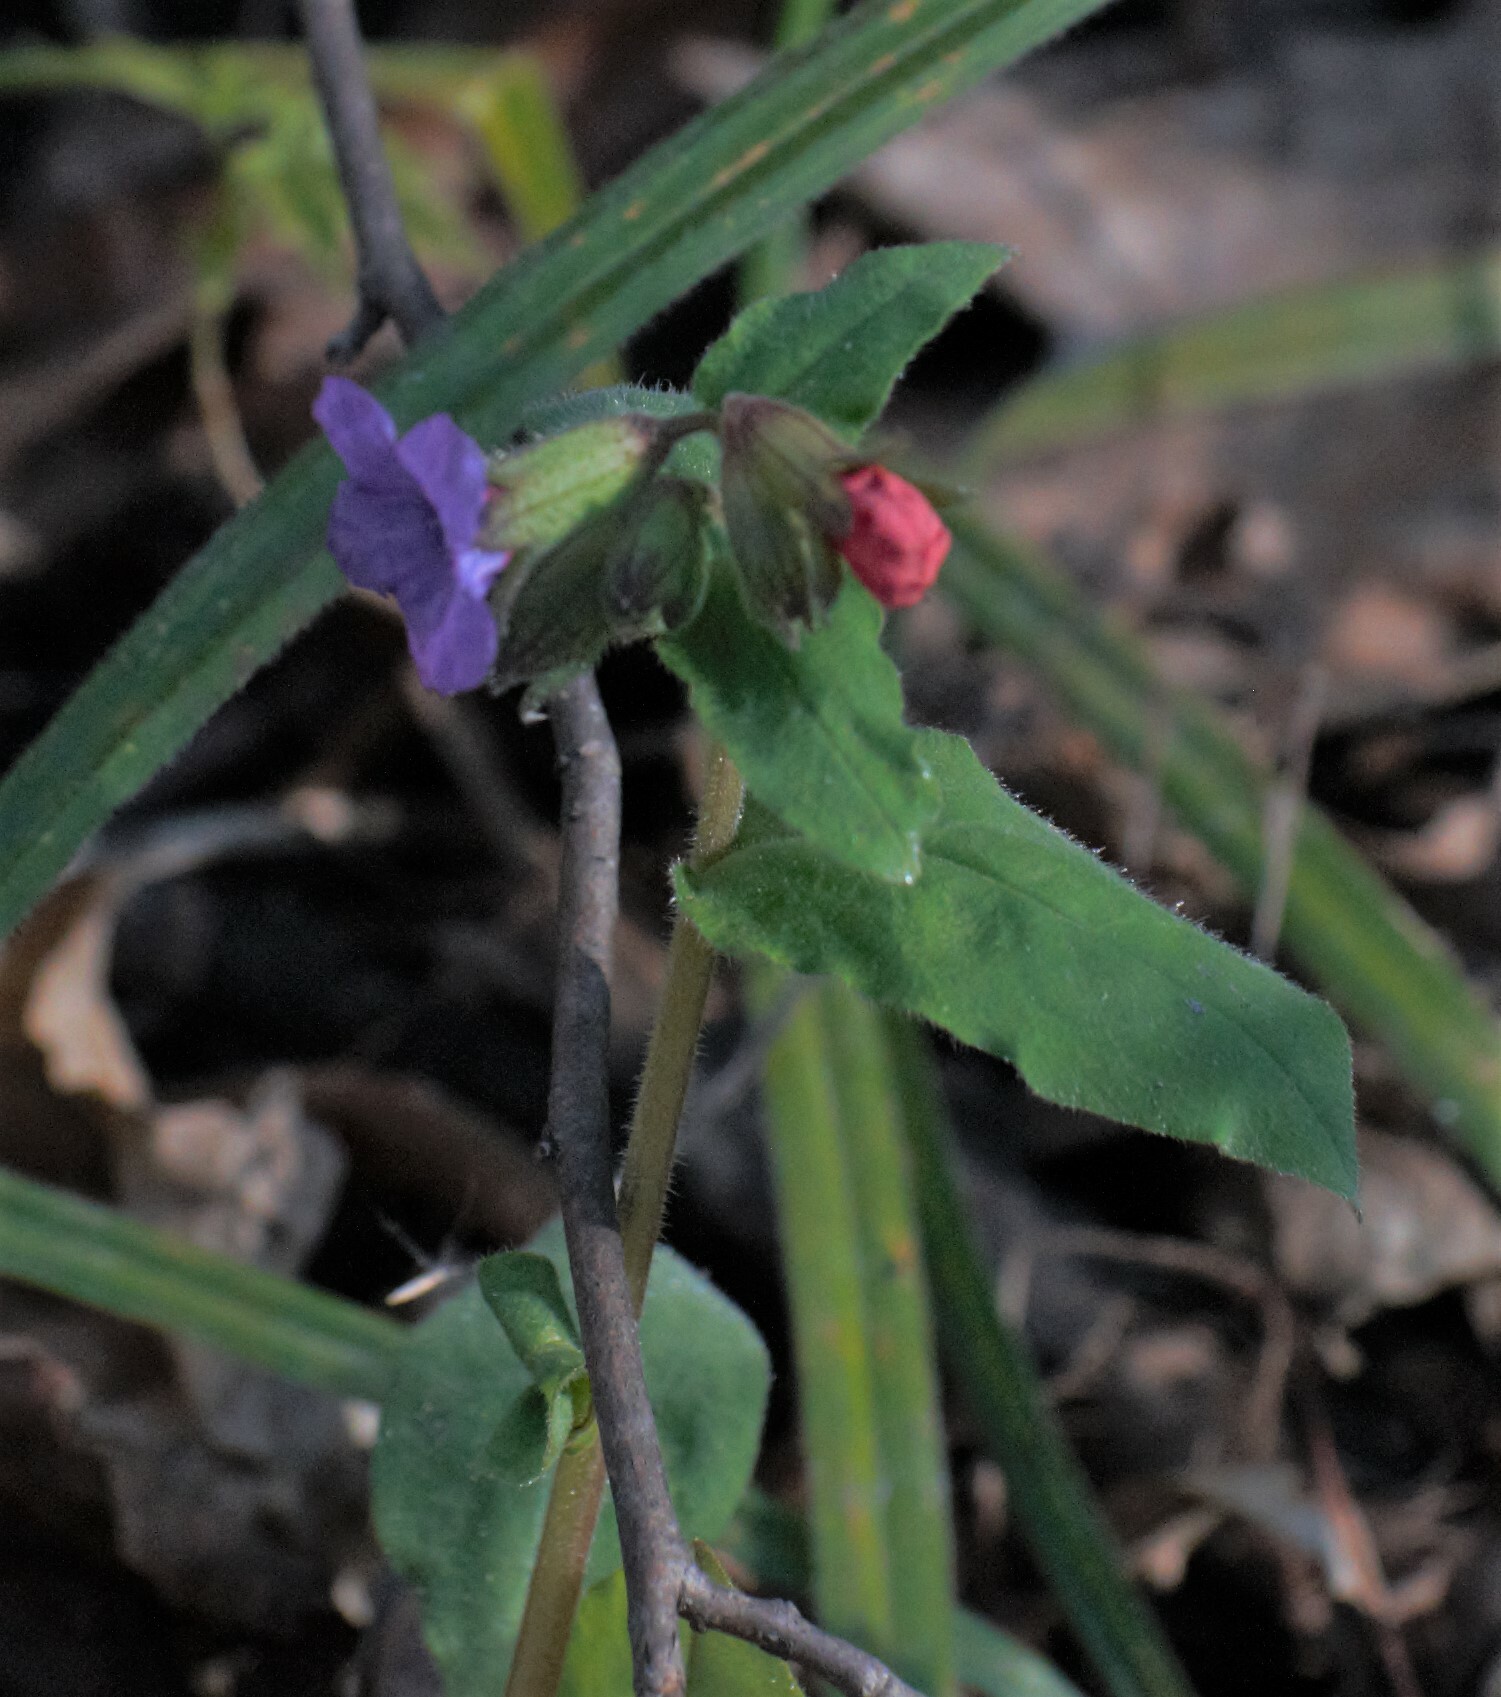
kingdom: Plantae
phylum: Tracheophyta
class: Magnoliopsida
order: Boraginales
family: Boraginaceae
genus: Pulmonaria
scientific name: Pulmonaria obscura
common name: Suffolk lungwort
